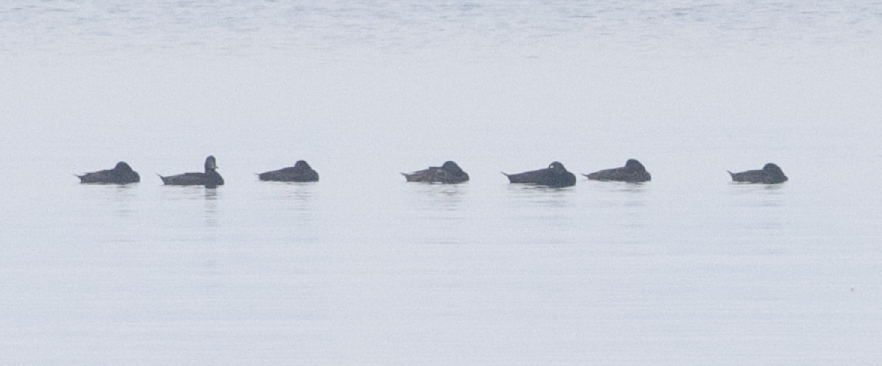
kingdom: Animalia
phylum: Chordata
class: Aves
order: Anseriformes
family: Anatidae
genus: Melanitta
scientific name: Melanitta fusca
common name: Velvet scoter
